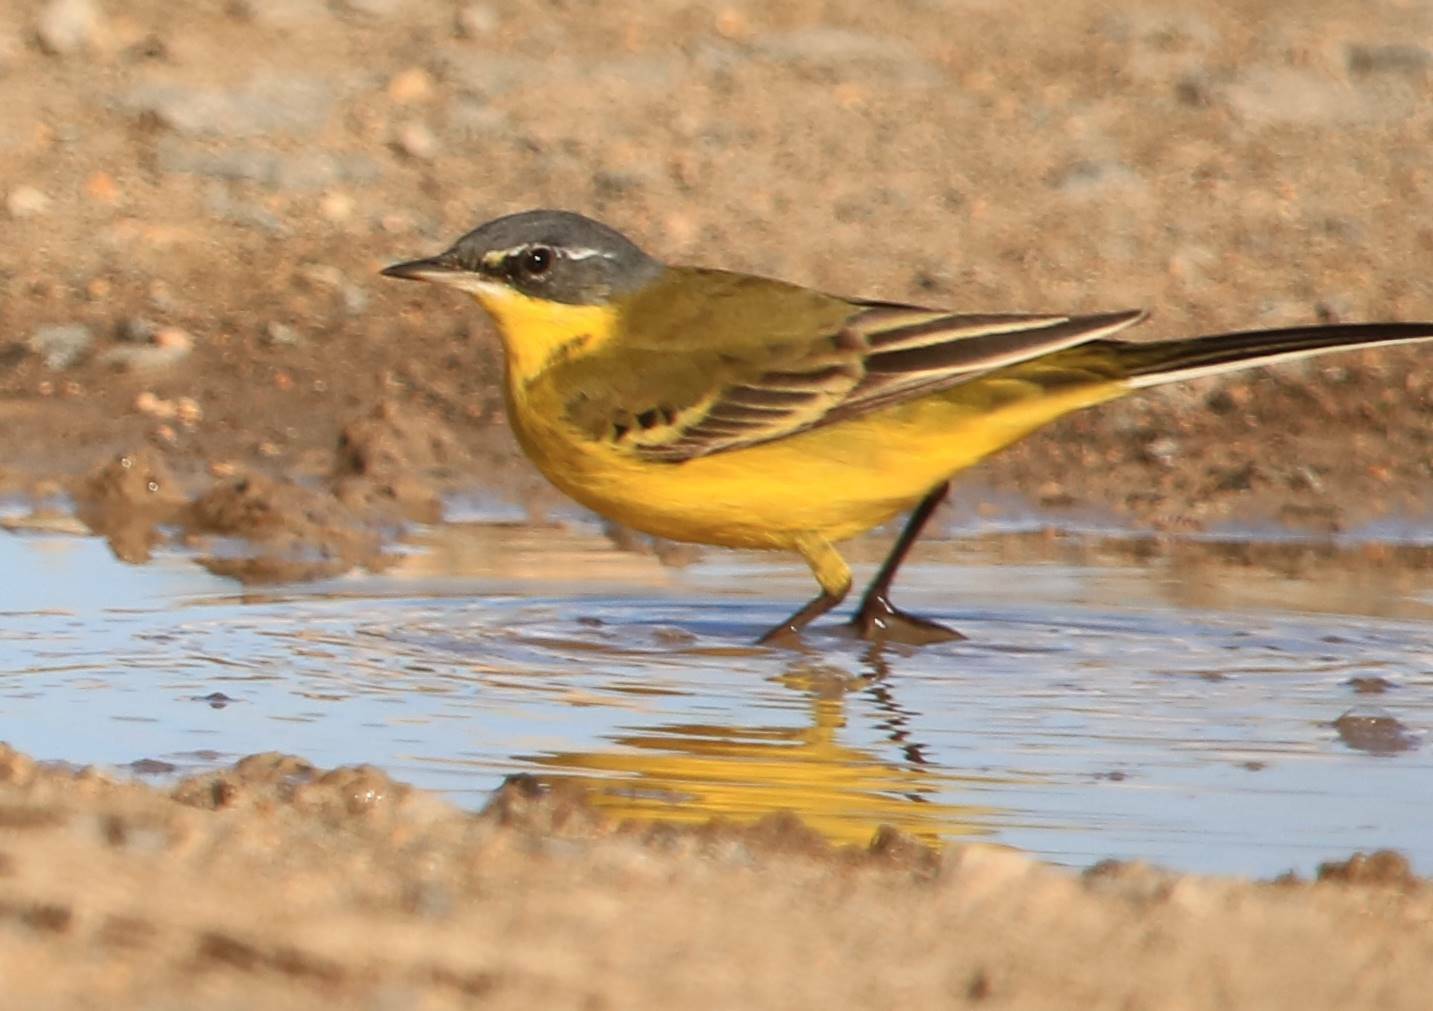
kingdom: Animalia
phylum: Chordata
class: Aves
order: Passeriformes
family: Motacillidae
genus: Motacilla
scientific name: Motacilla flava
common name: Western yellow wagtail
